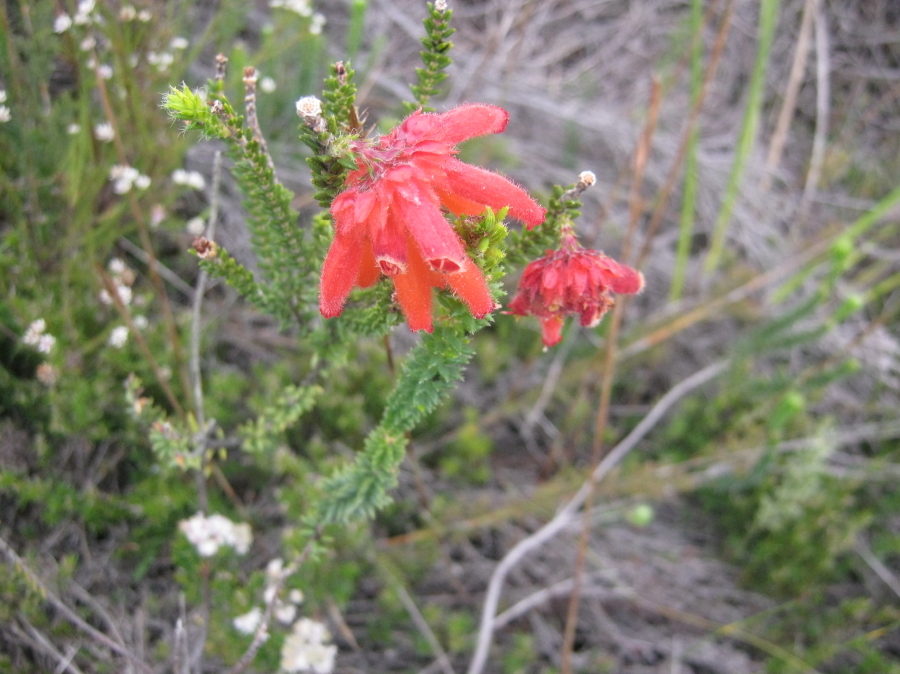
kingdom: Plantae
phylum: Tracheophyta
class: Magnoliopsida
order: Ericales
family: Ericaceae
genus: Erica
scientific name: Erica cerinthoides
